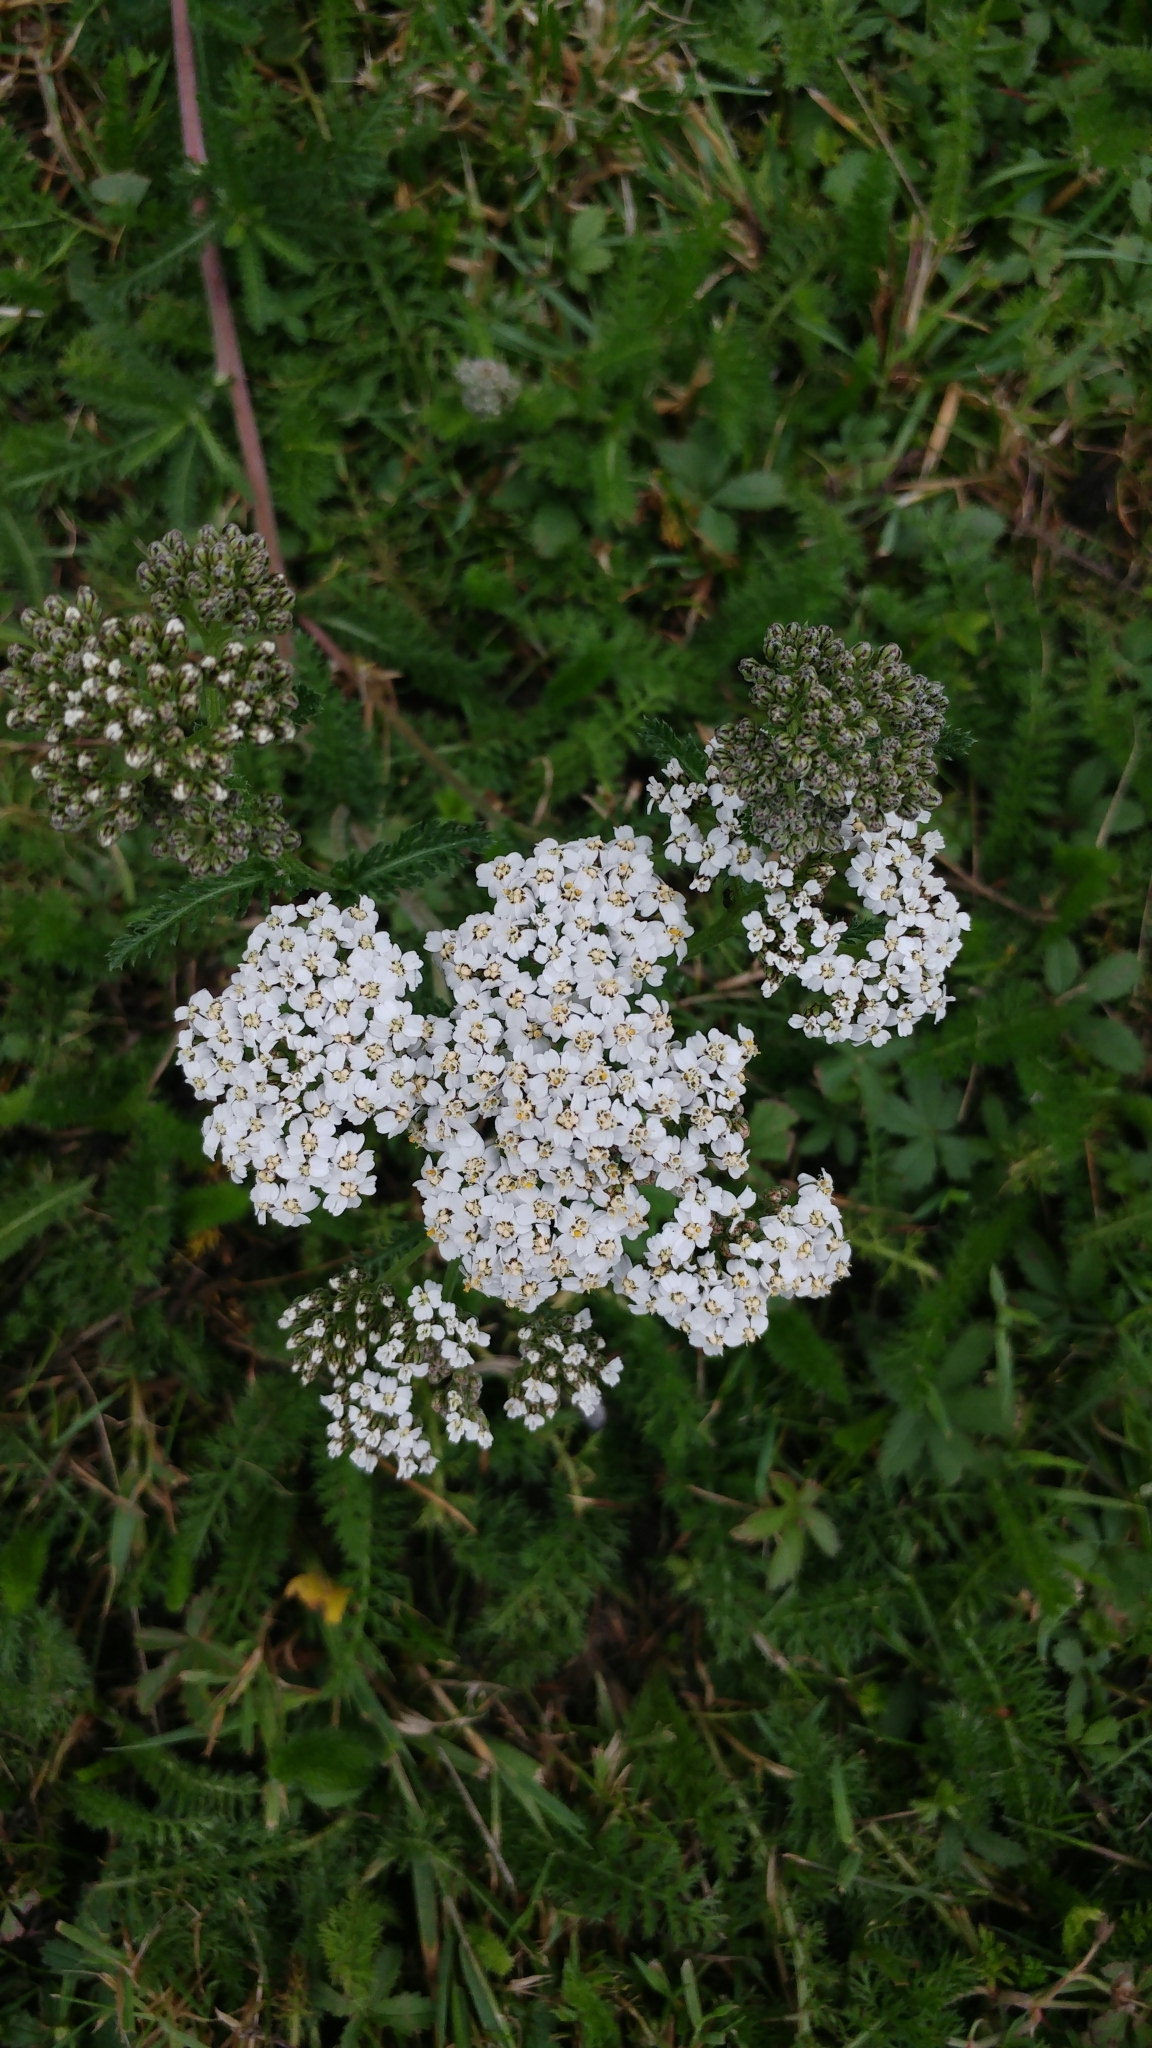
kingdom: Plantae
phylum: Tracheophyta
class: Magnoliopsida
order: Asterales
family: Asteraceae
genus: Achillea
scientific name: Achillea millefolium
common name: Yarrow
